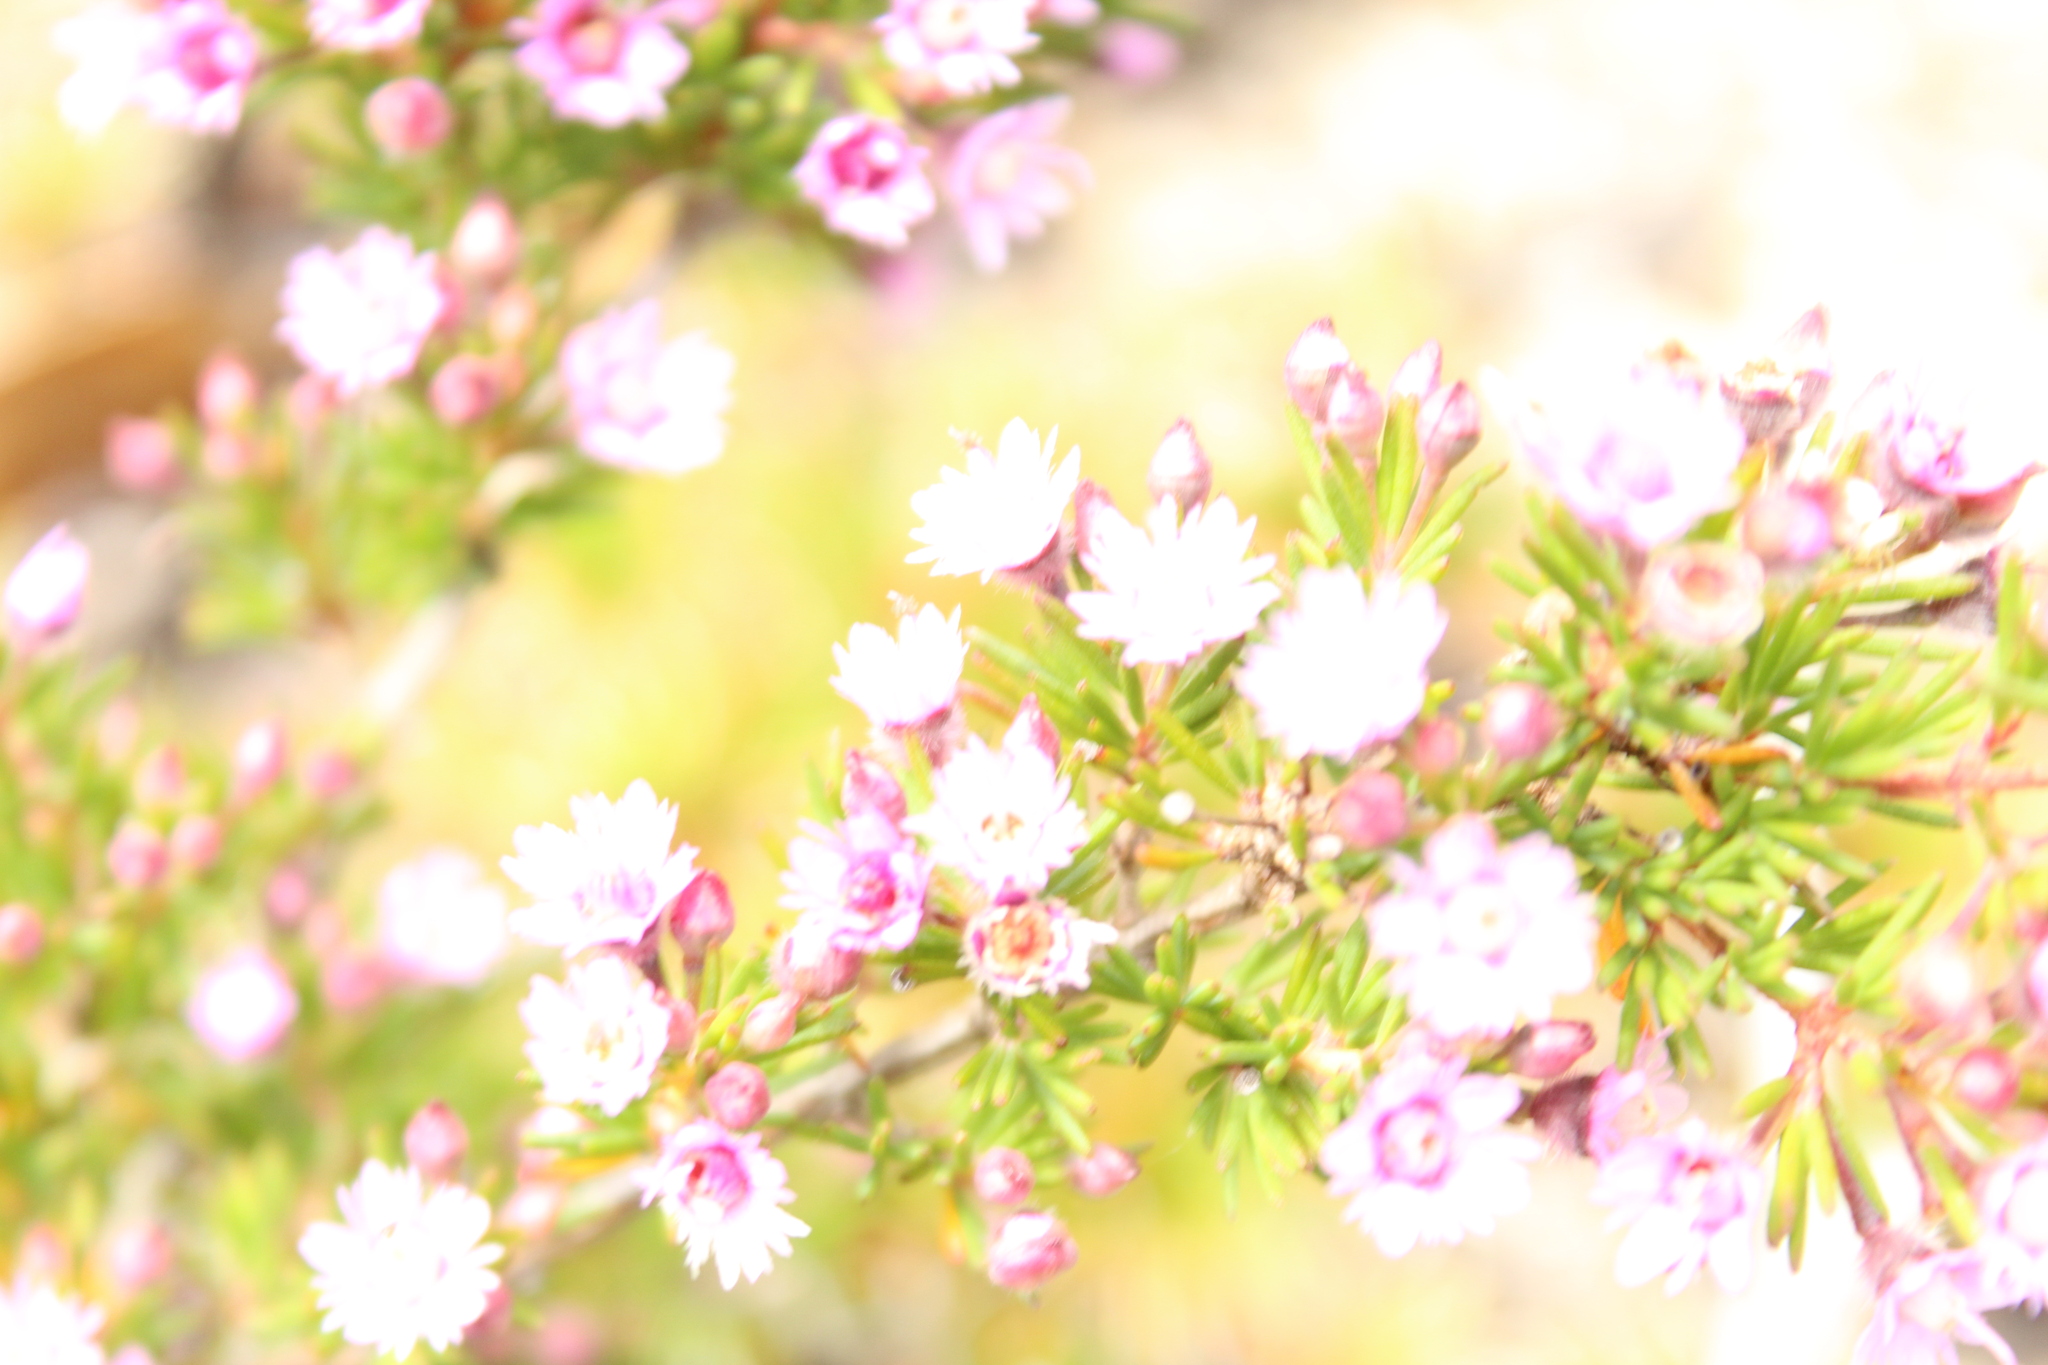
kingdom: Plantae
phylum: Tracheophyta
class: Magnoliopsida
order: Myrtales
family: Myrtaceae
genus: Verticordia
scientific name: Verticordia plumosa
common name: Plume feather-flower
